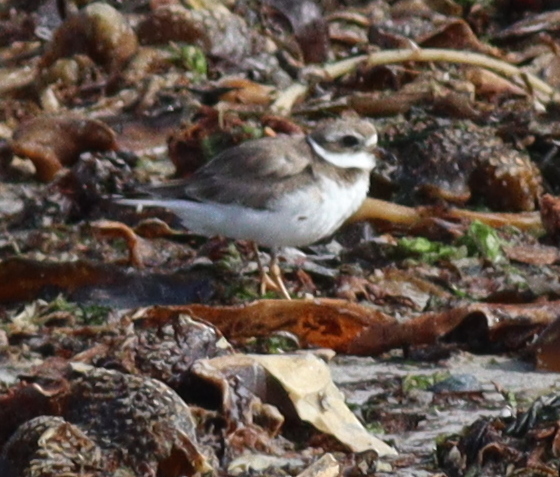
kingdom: Animalia
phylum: Chordata
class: Aves
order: Charadriiformes
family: Charadriidae
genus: Charadrius
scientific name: Charadrius hiaticula
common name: Common ringed plover
